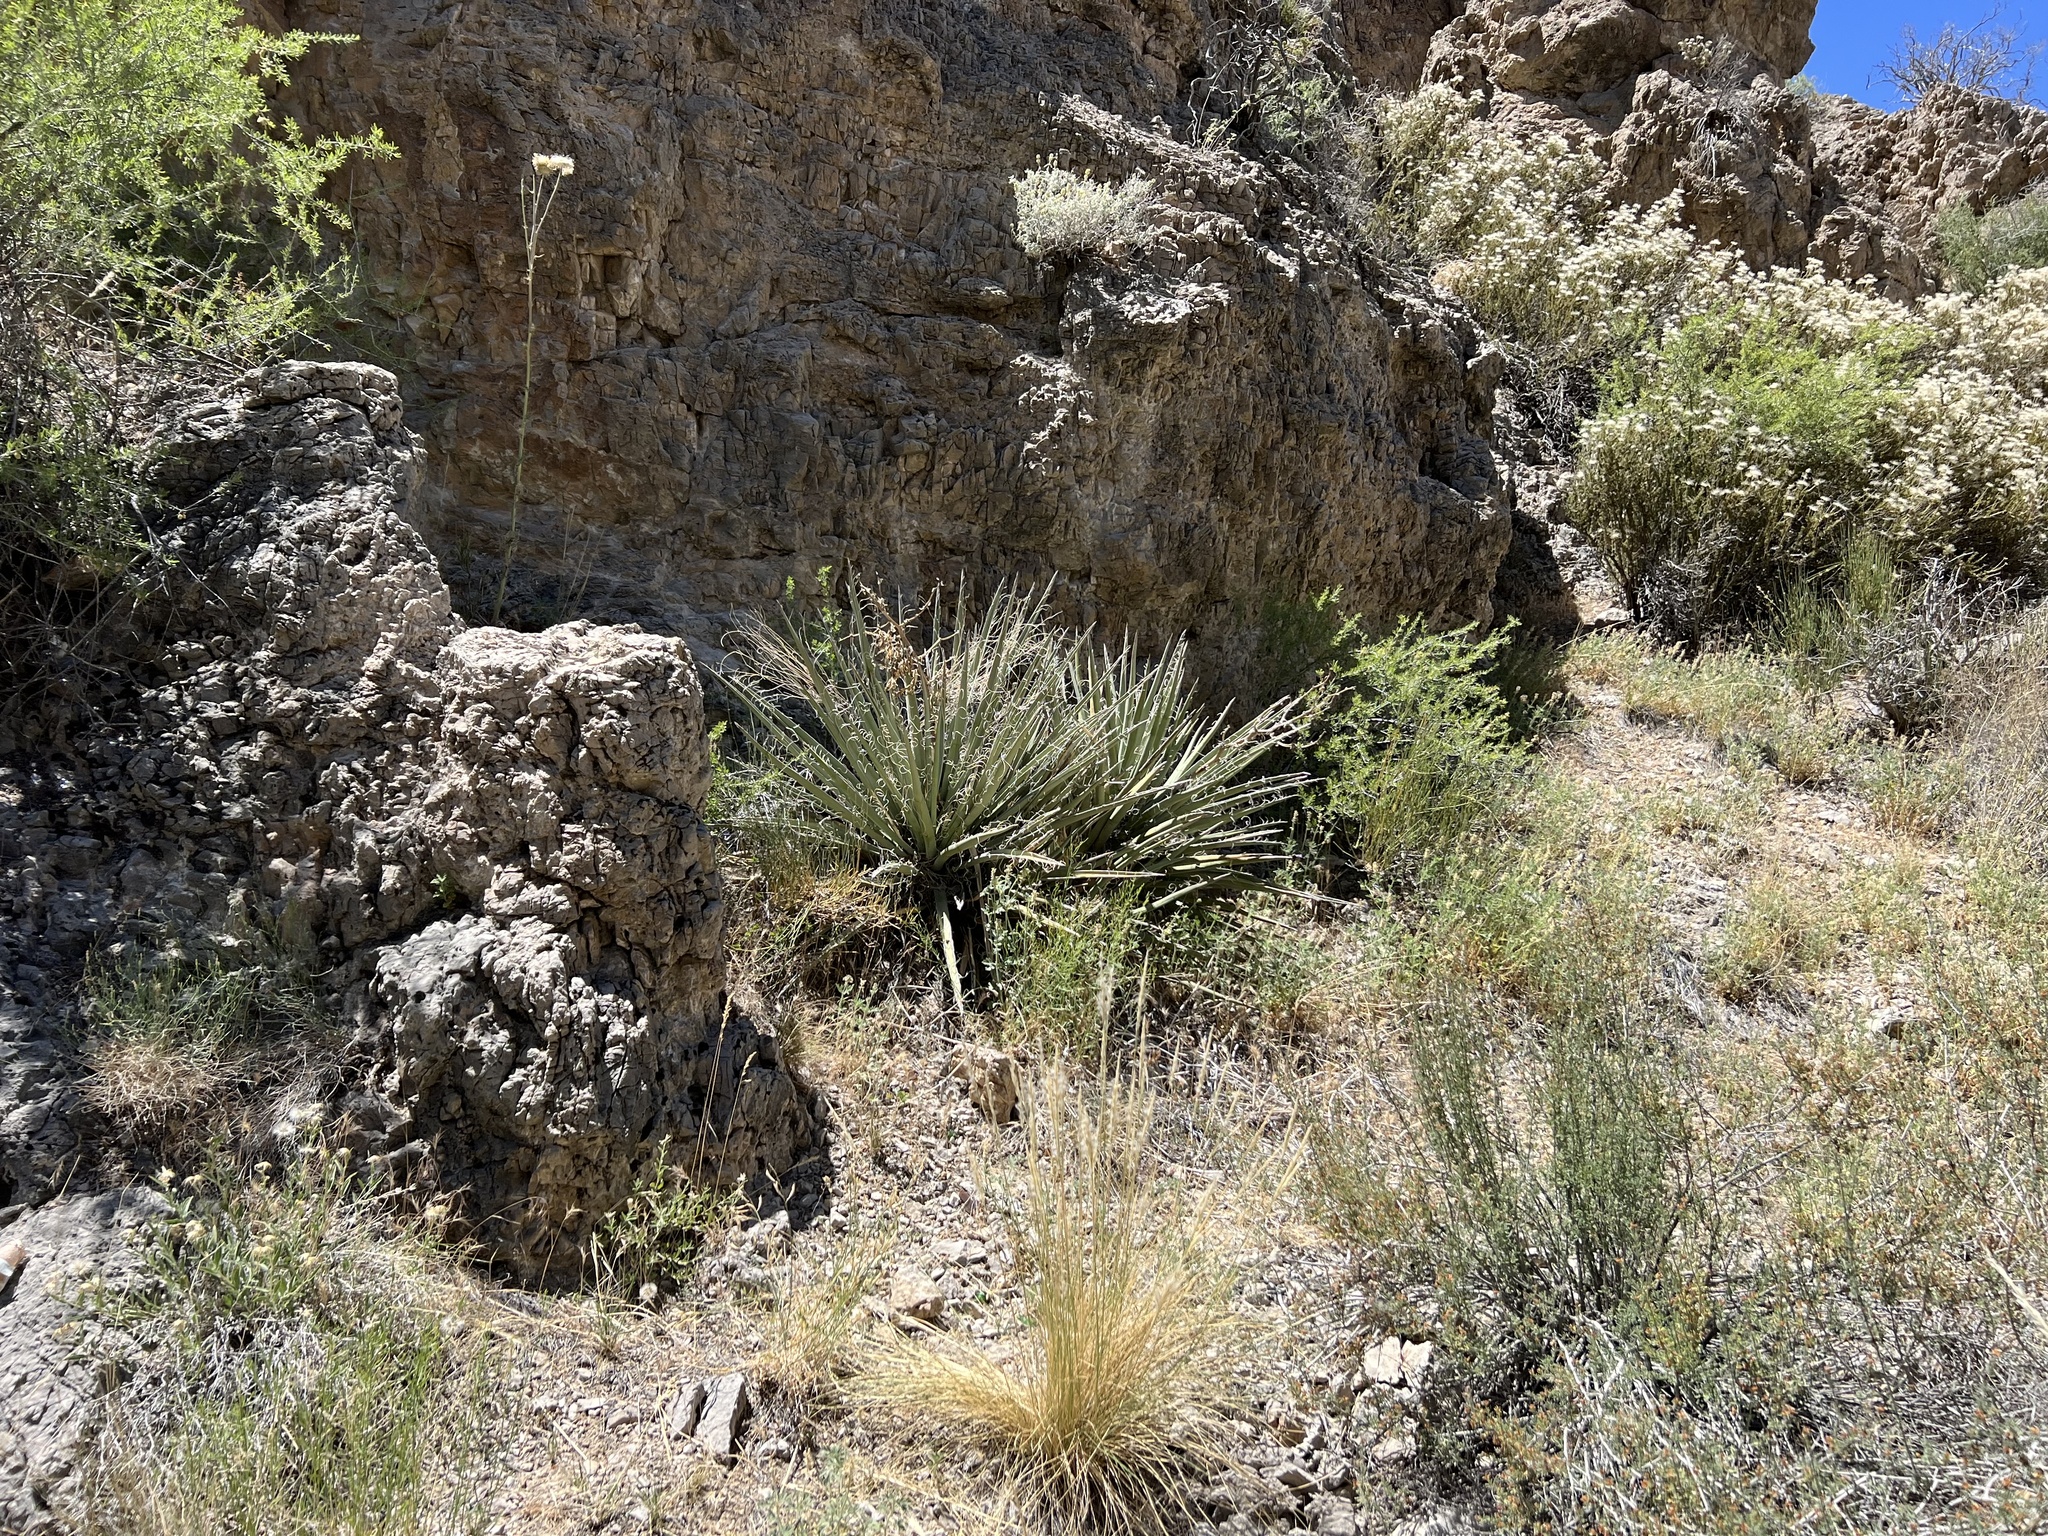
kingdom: Plantae
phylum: Tracheophyta
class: Liliopsida
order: Asparagales
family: Asparagaceae
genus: Yucca
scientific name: Yucca baccata
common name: Banana yucca
